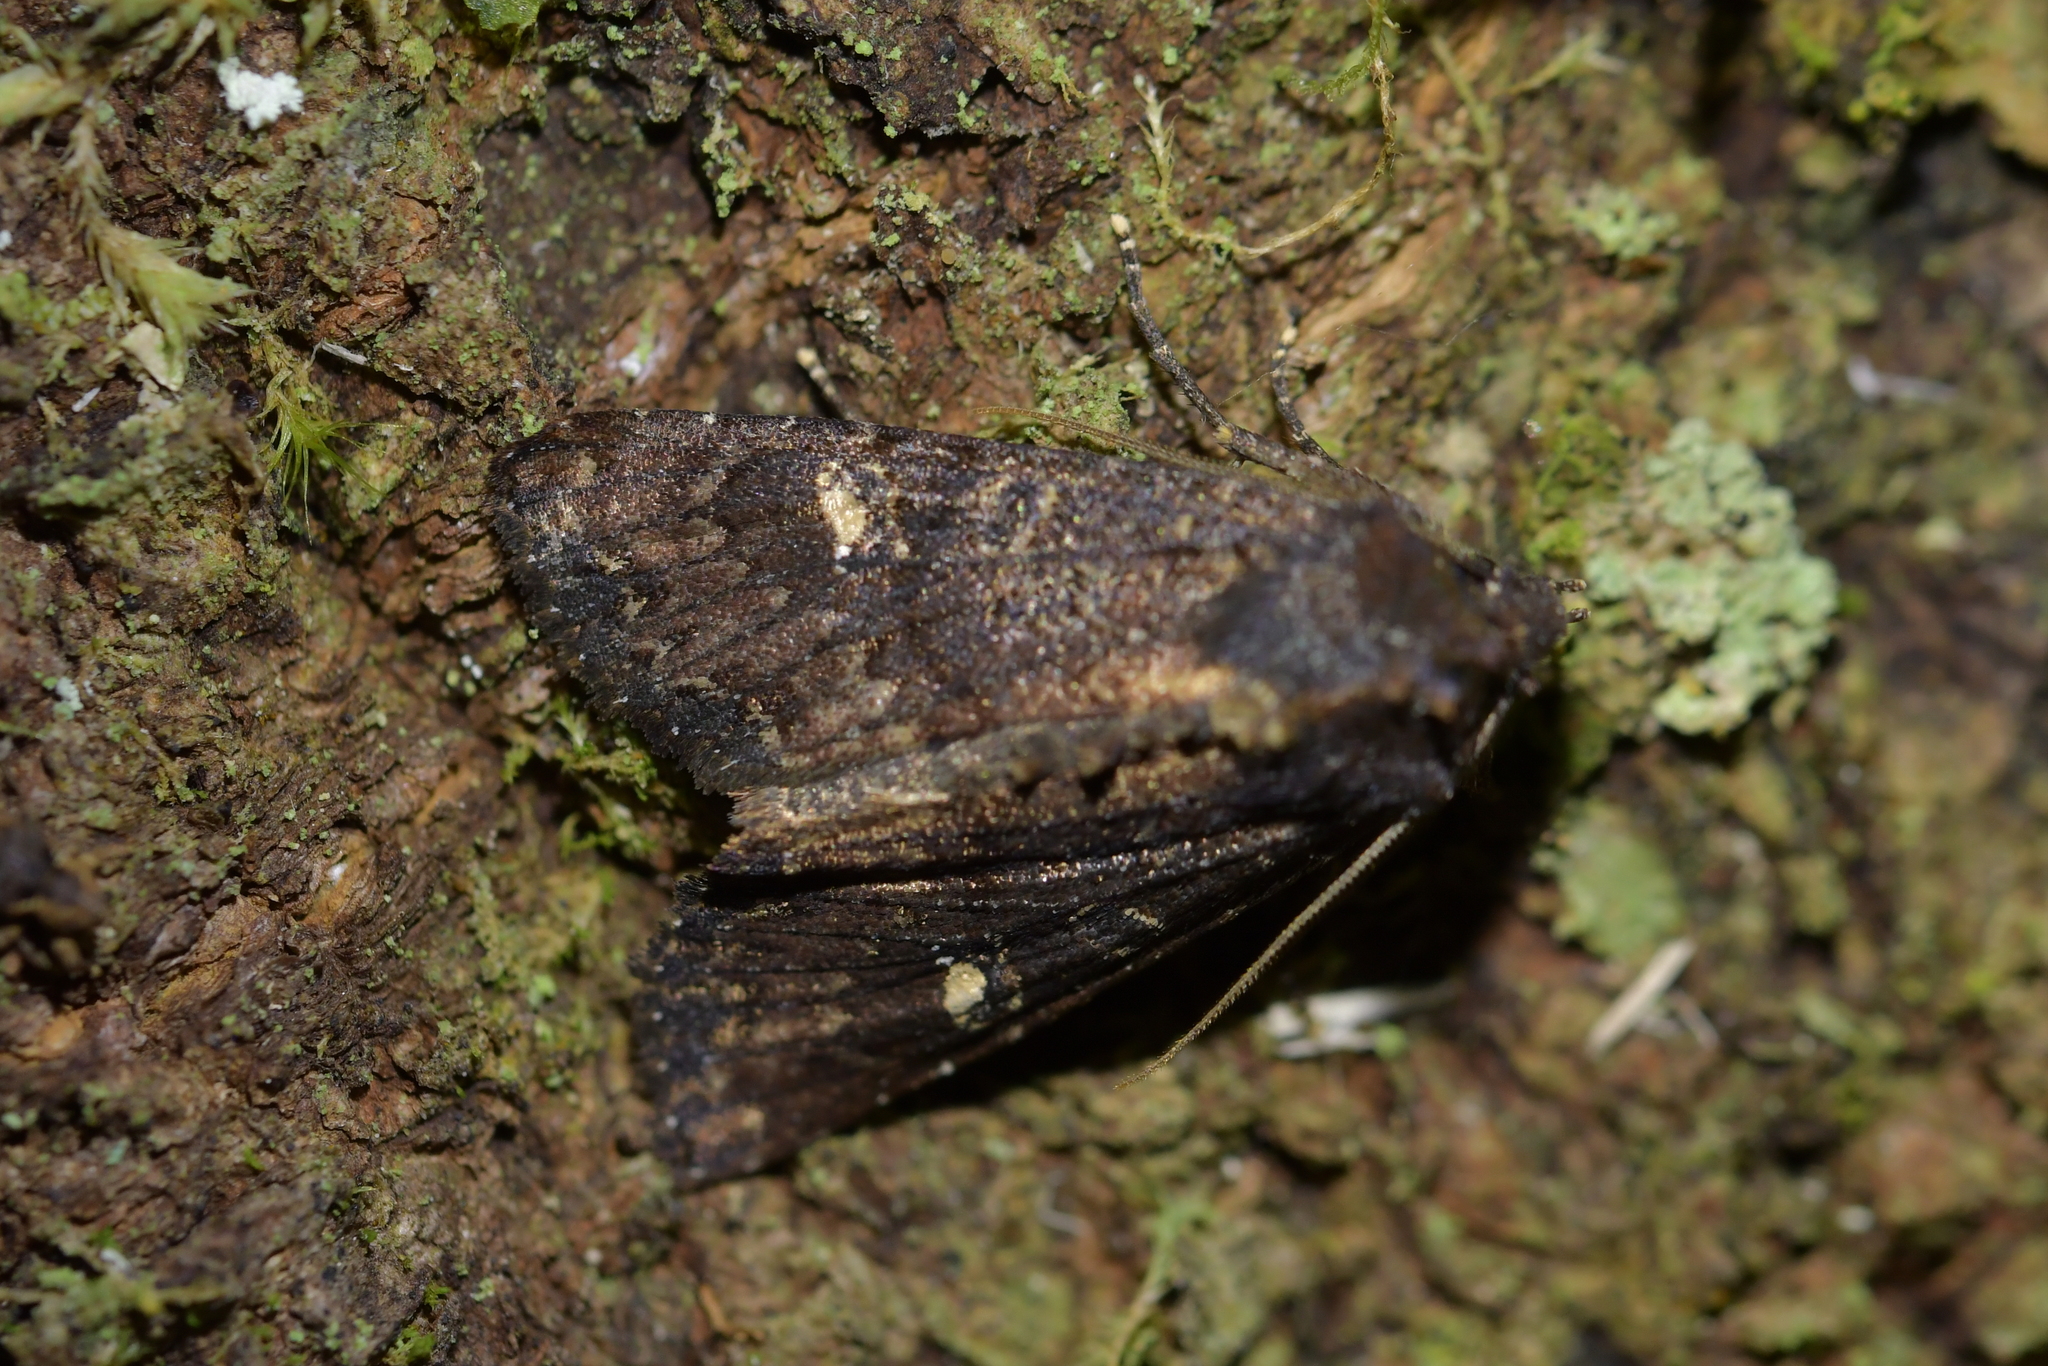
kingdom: Animalia
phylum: Arthropoda
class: Insecta
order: Lepidoptera
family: Noctuidae
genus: Meterana
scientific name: Meterana vitiosa
